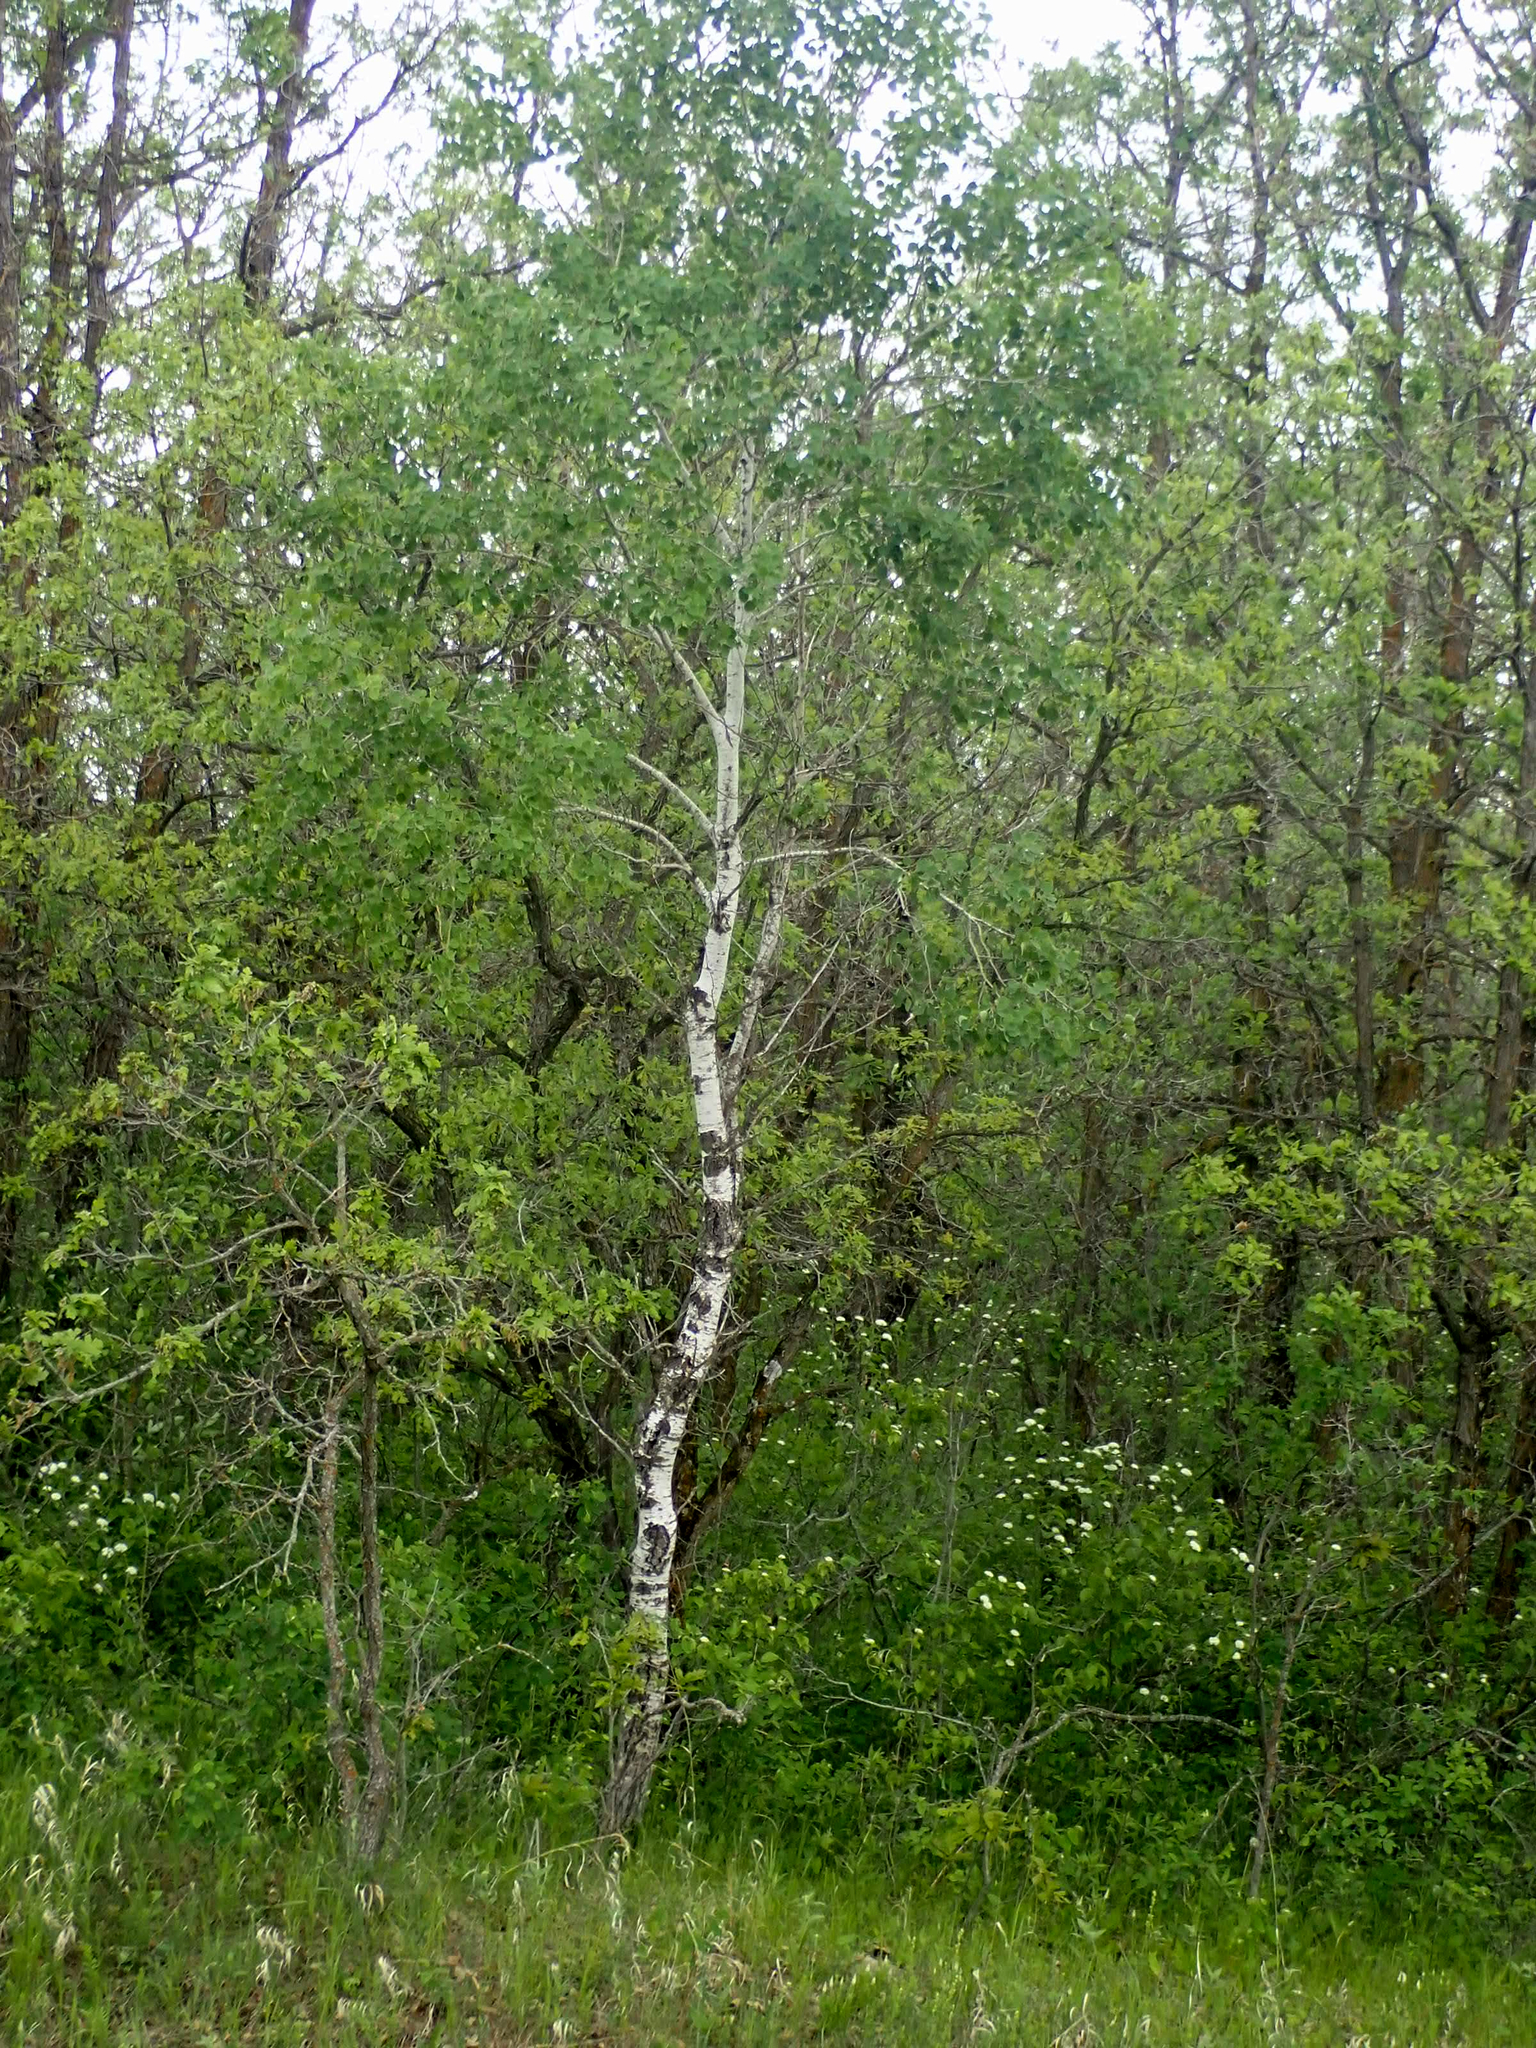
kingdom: Plantae
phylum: Tracheophyta
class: Magnoliopsida
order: Malpighiales
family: Salicaceae
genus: Populus
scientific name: Populus tremuloides
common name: Quaking aspen
